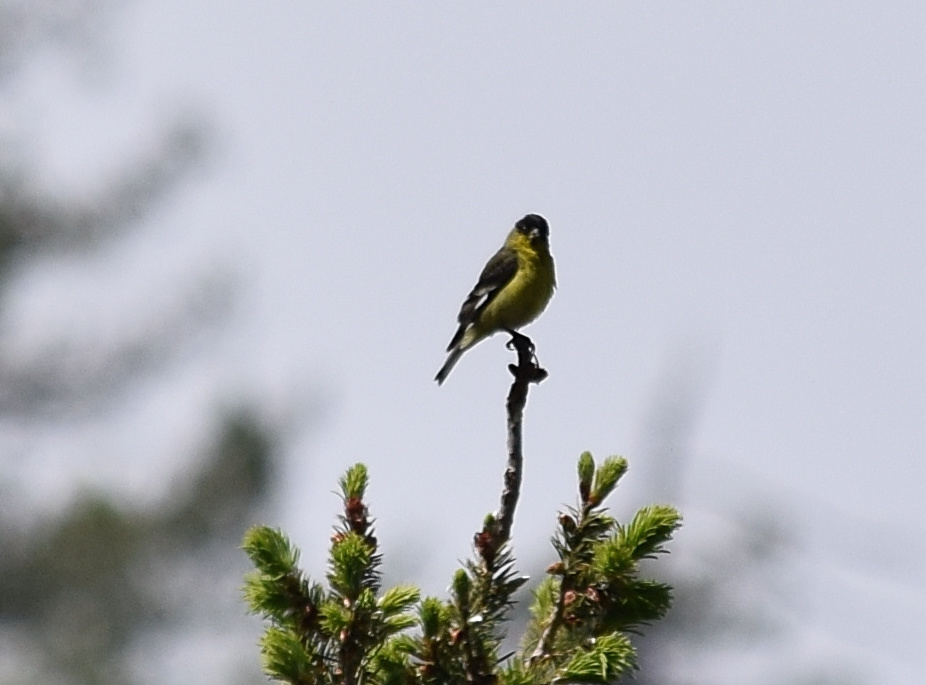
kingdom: Animalia
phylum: Chordata
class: Aves
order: Passeriformes
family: Fringillidae
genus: Spinus
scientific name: Spinus psaltria
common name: Lesser goldfinch
